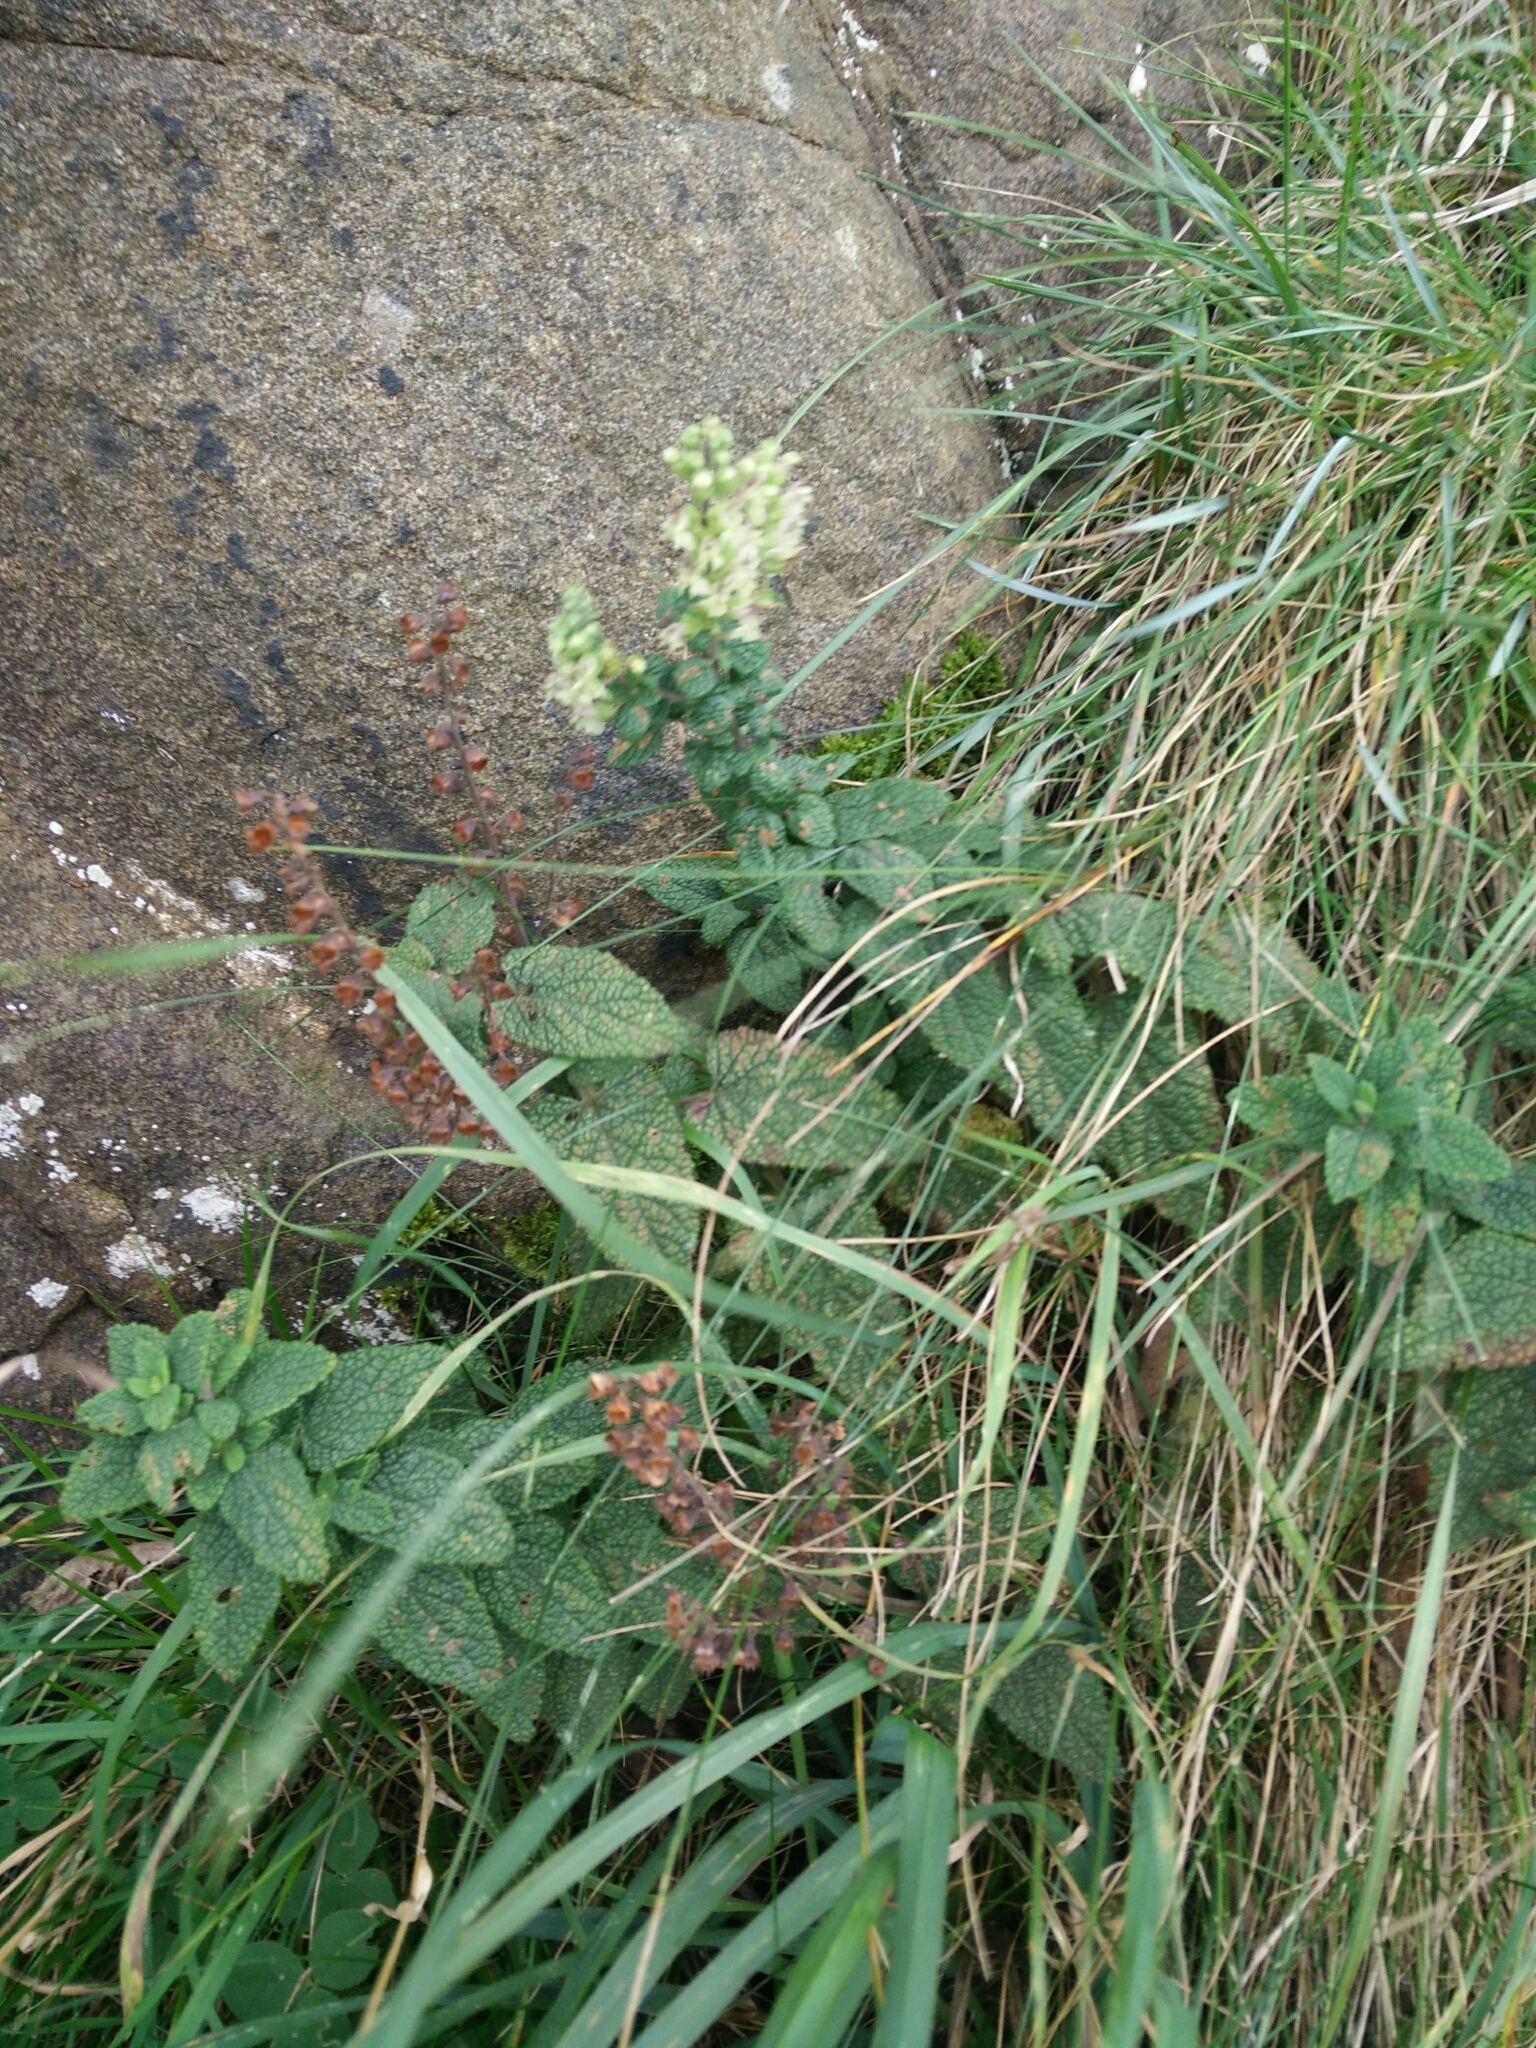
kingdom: Plantae
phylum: Tracheophyta
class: Magnoliopsida
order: Lamiales
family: Lamiaceae
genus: Teucrium
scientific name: Teucrium scorodonia
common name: Woodland germander
